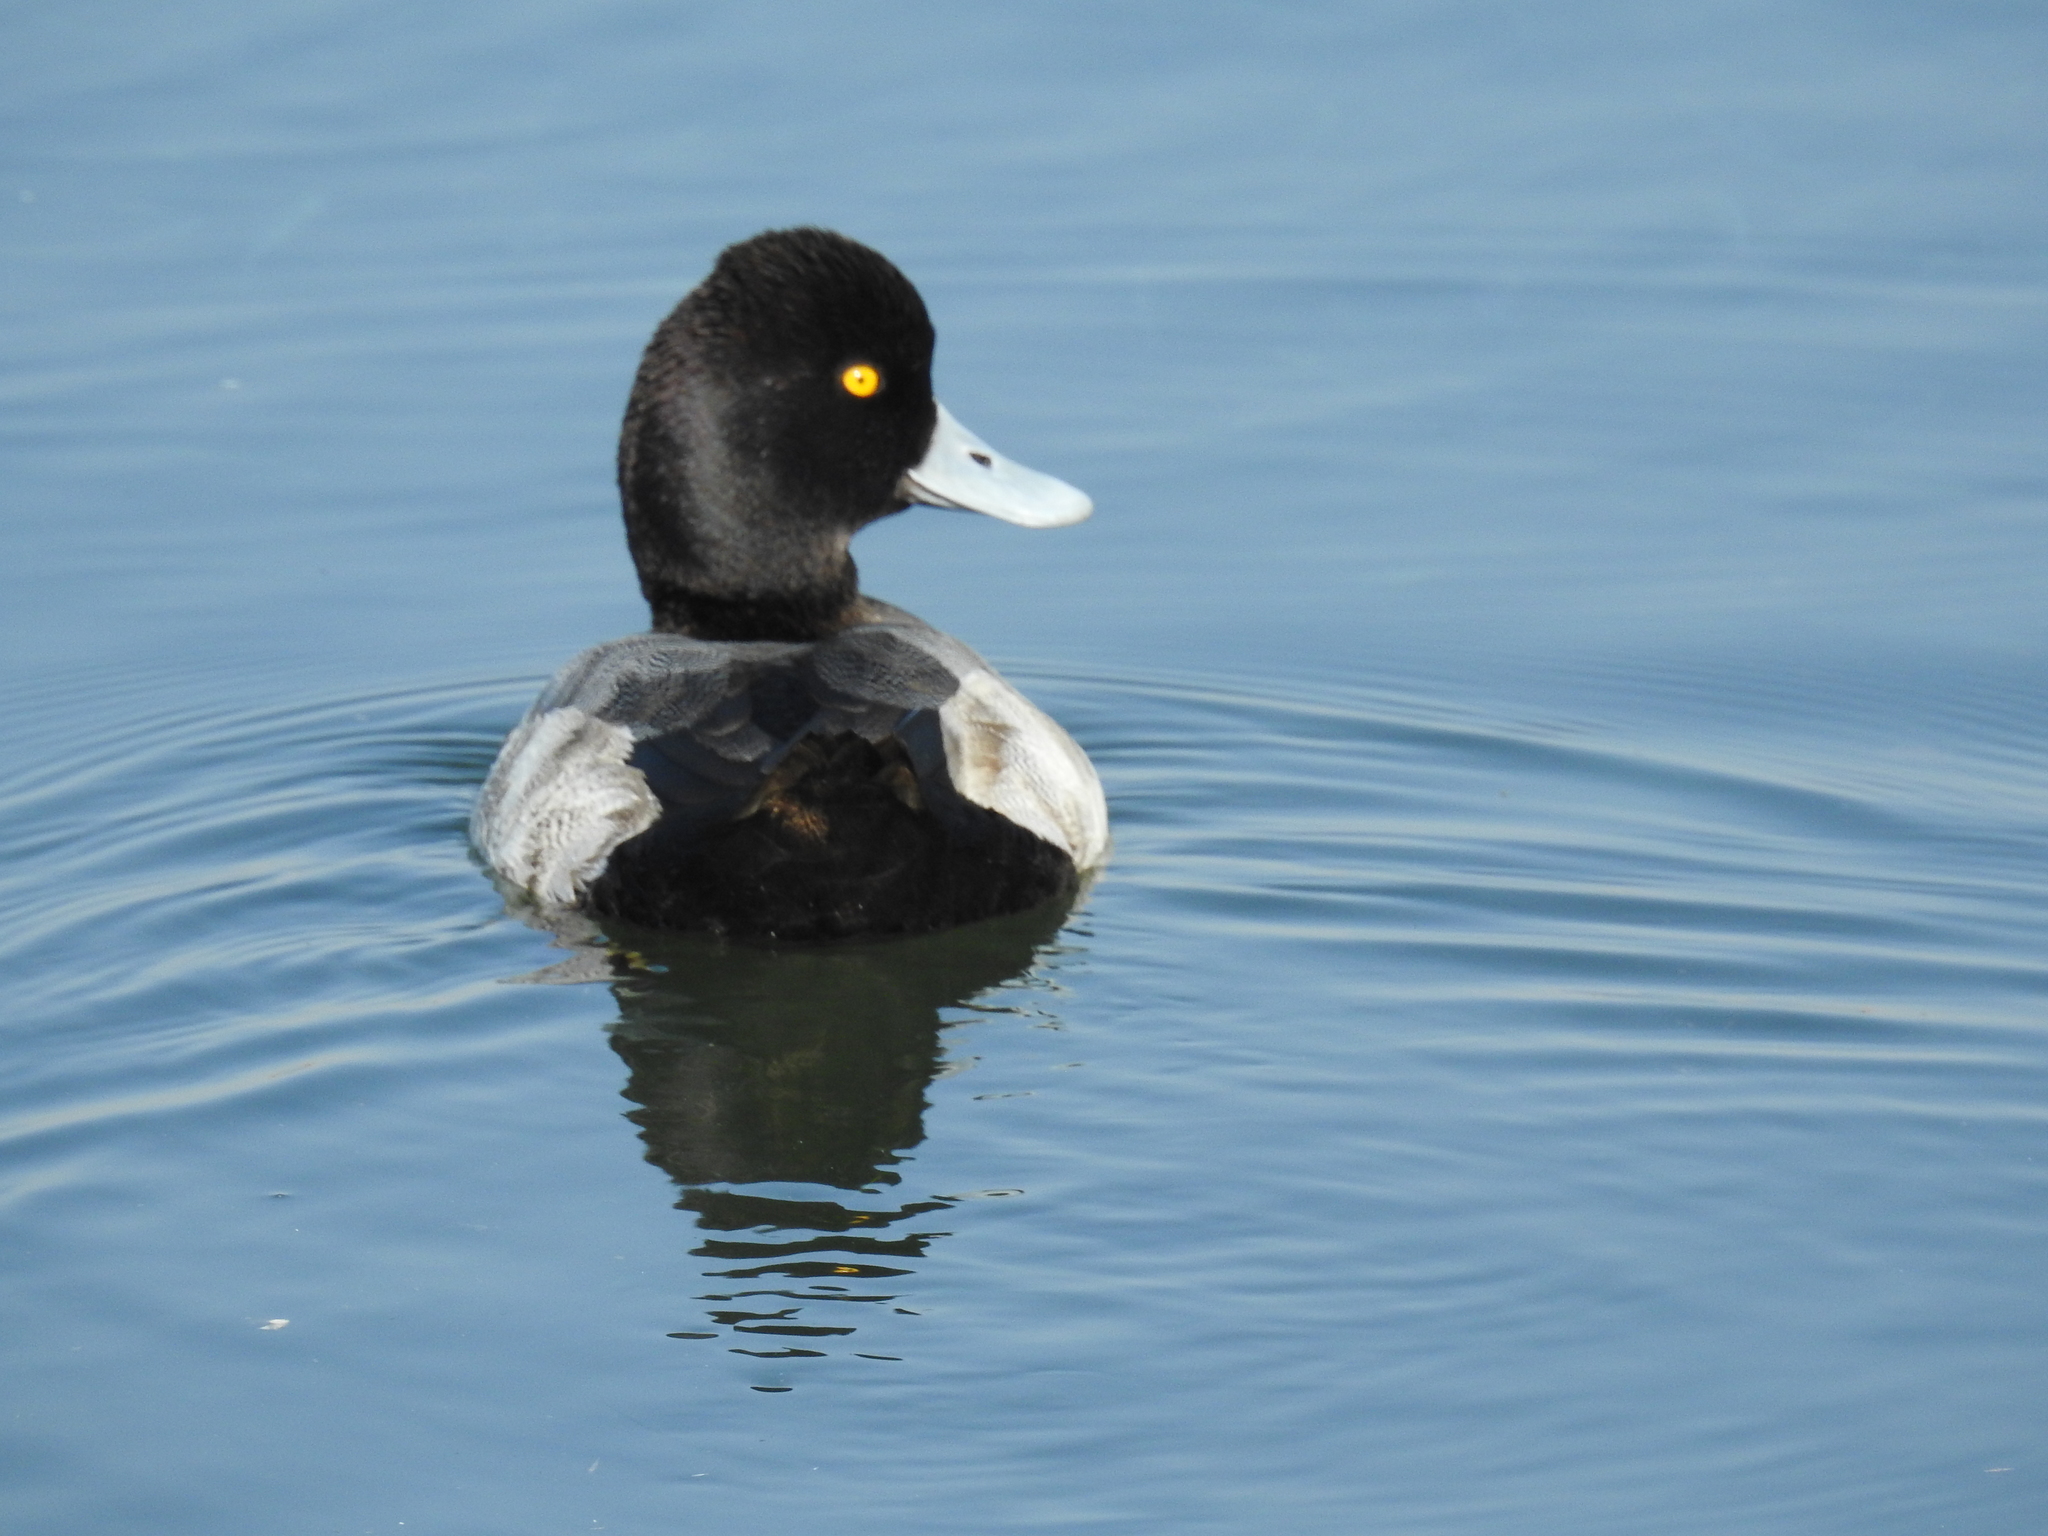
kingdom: Animalia
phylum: Chordata
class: Aves
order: Anseriformes
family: Anatidae
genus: Aythya
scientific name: Aythya affinis
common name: Lesser scaup
